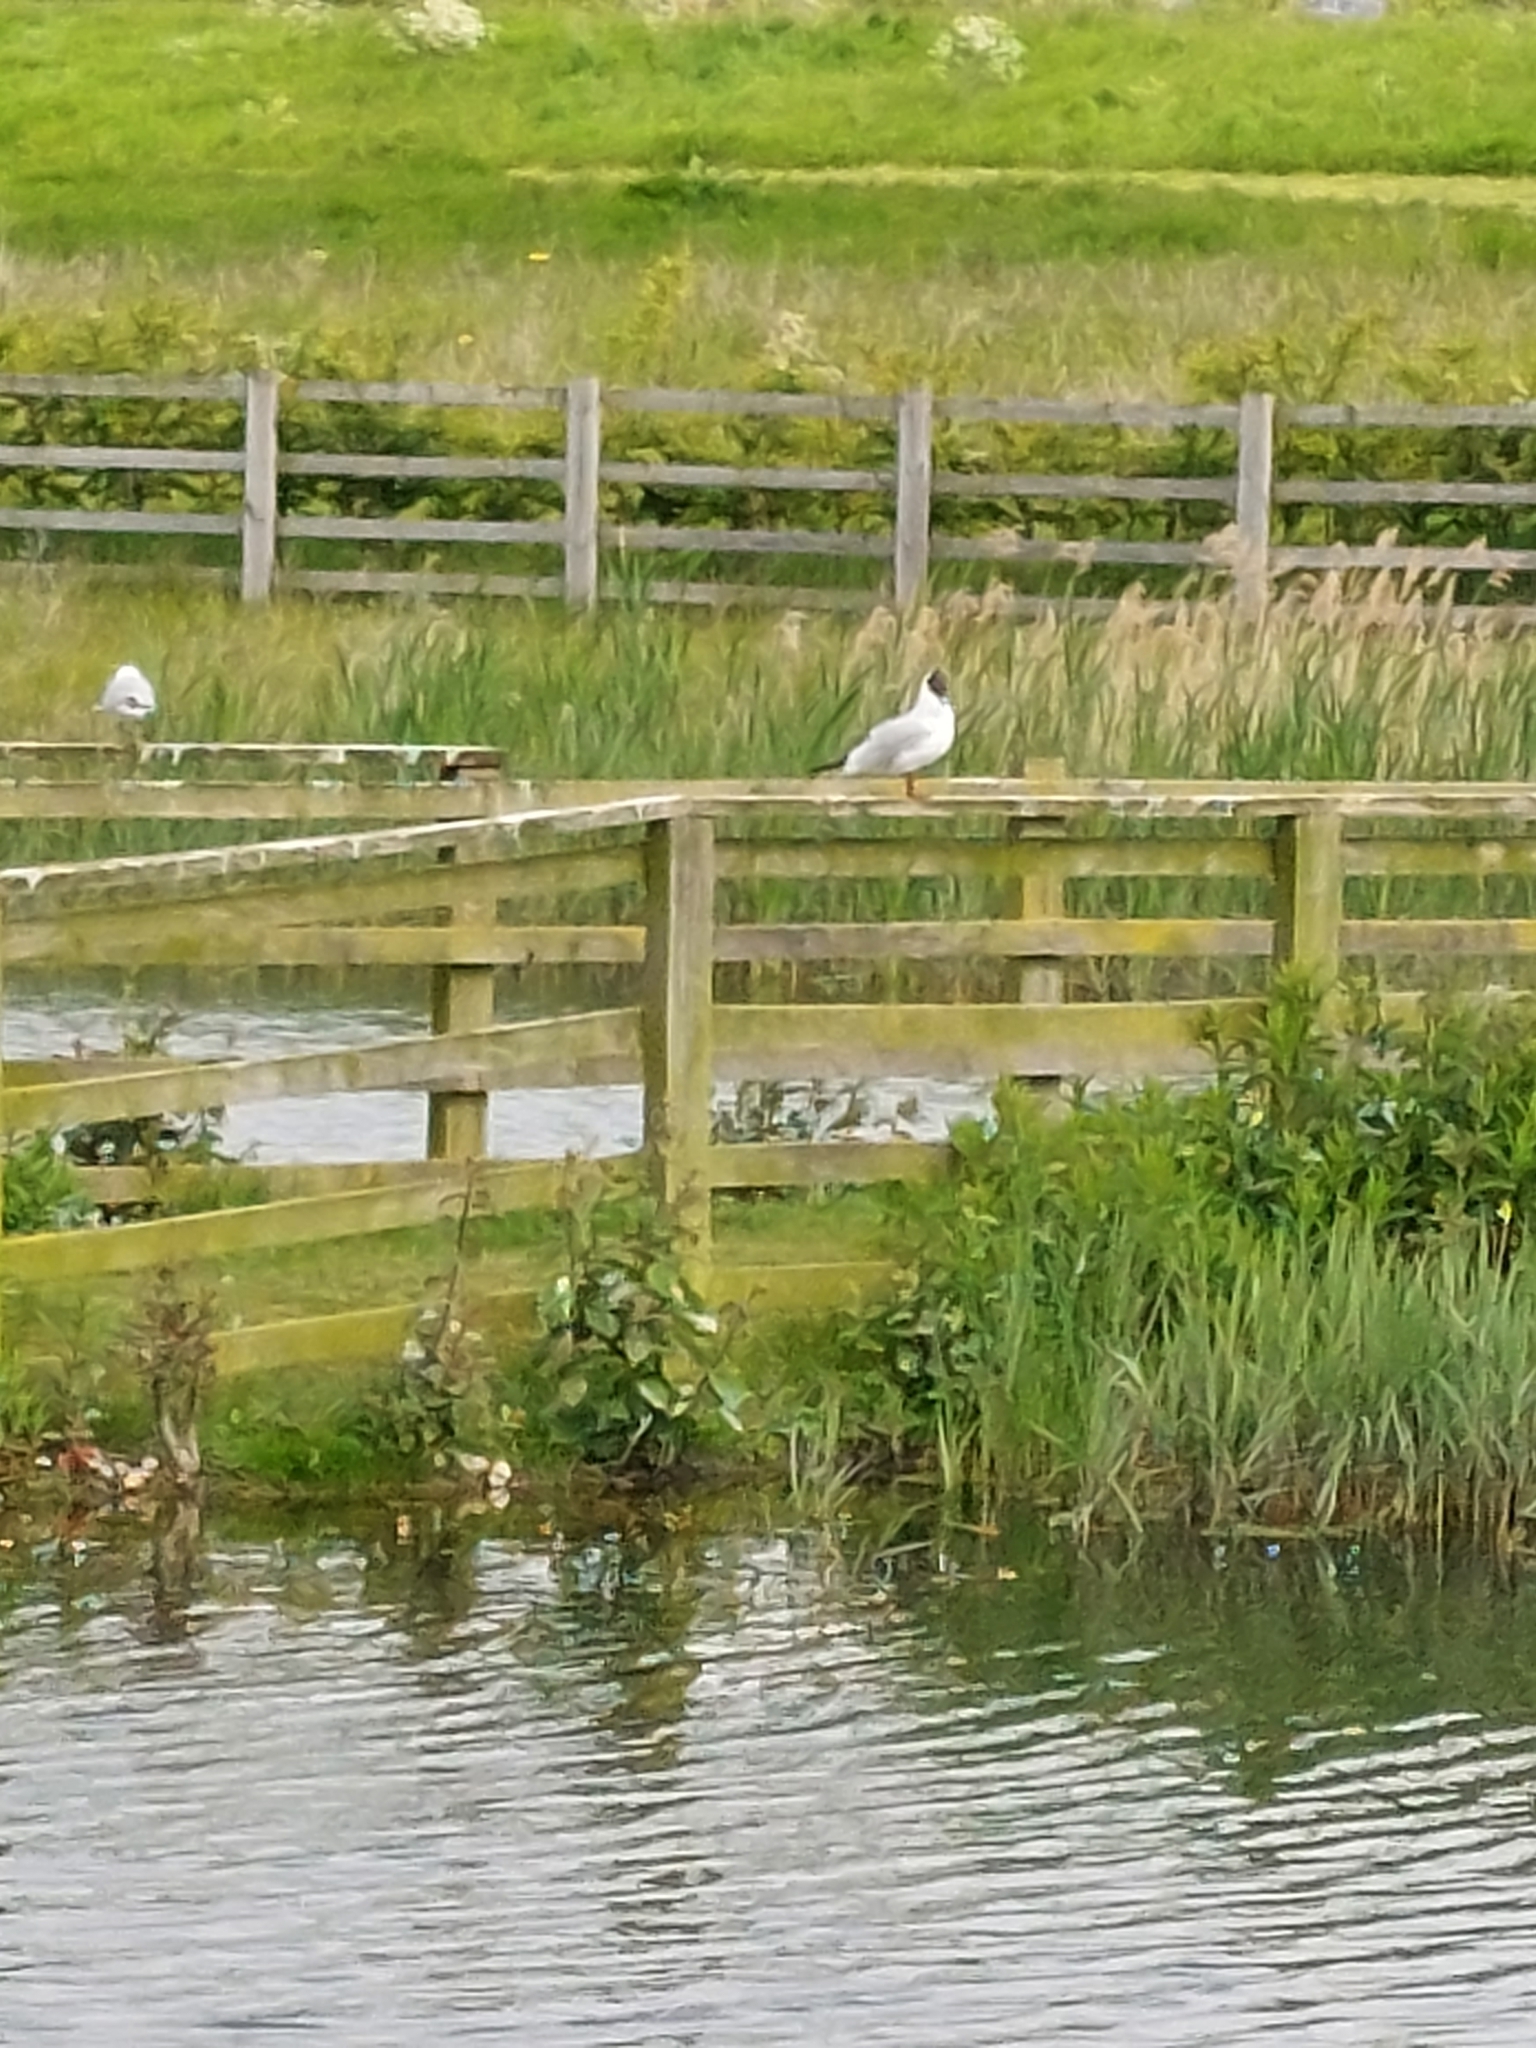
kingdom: Animalia
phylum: Chordata
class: Aves
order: Charadriiformes
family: Laridae
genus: Chroicocephalus
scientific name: Chroicocephalus ridibundus
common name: Black-headed gull
